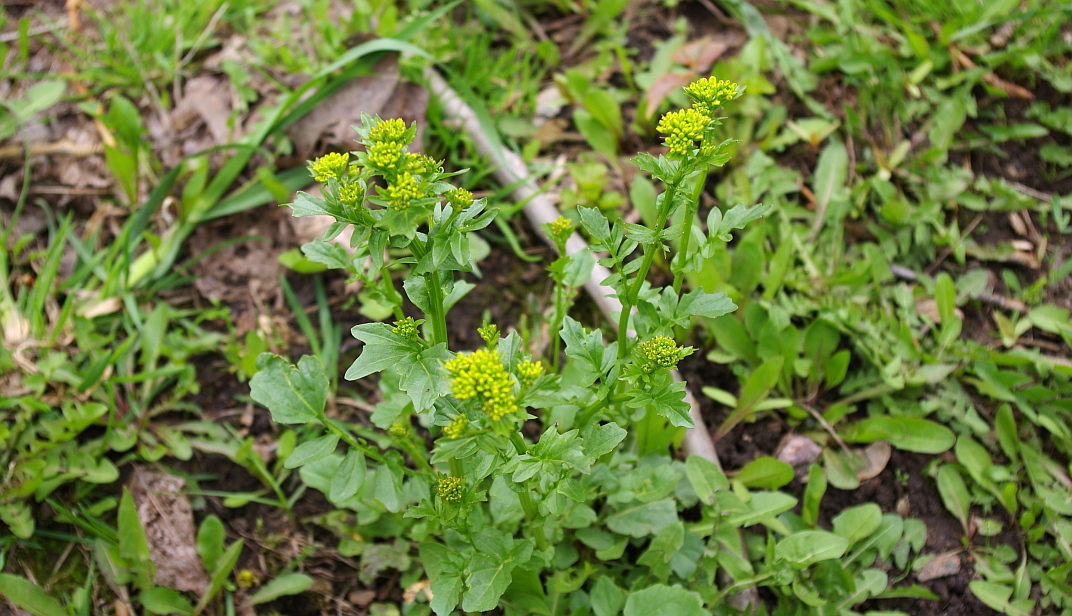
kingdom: Plantae
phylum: Tracheophyta
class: Magnoliopsida
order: Brassicales
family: Brassicaceae
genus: Barbarea
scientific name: Barbarea vulgaris
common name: Cressy-greens
